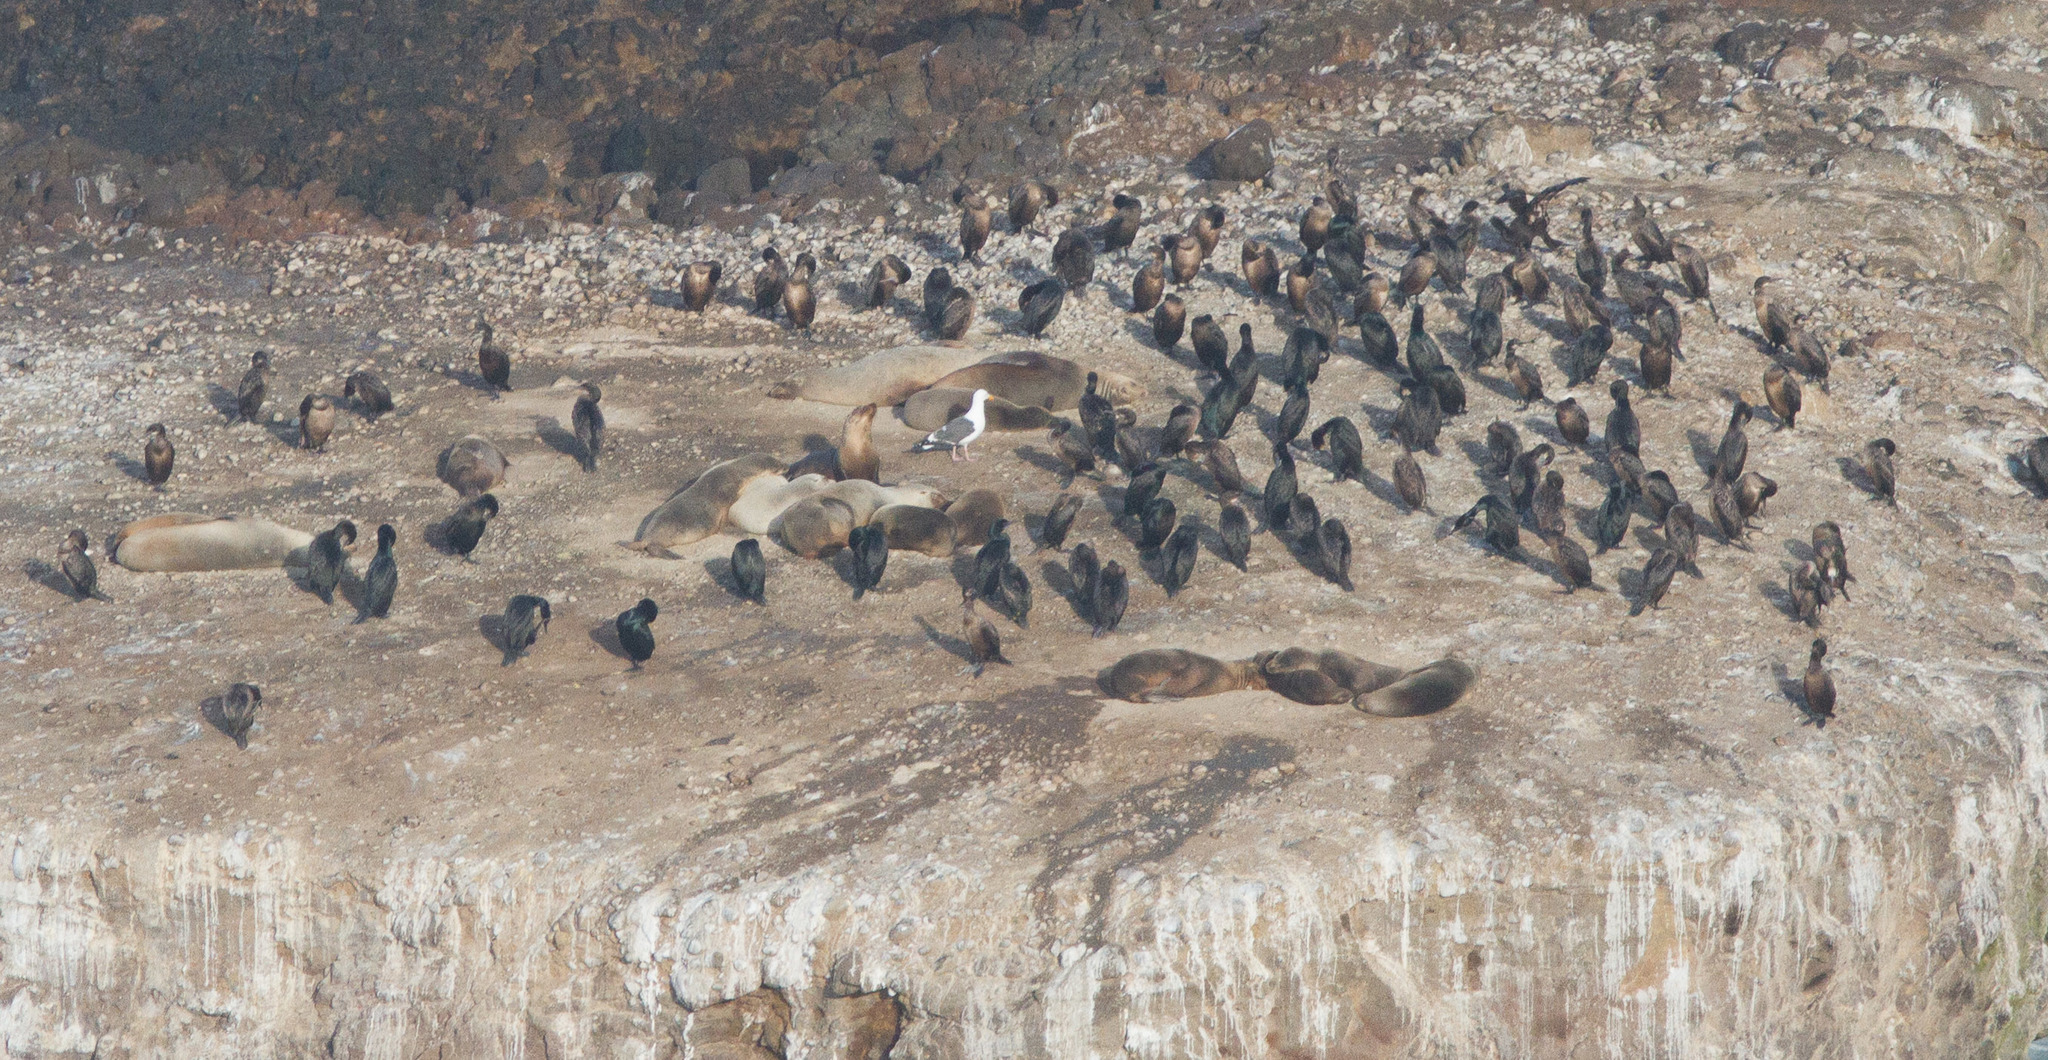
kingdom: Animalia
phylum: Chordata
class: Aves
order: Suliformes
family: Phalacrocoracidae
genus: Urile
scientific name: Urile penicillatus
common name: Brandt's cormorant
